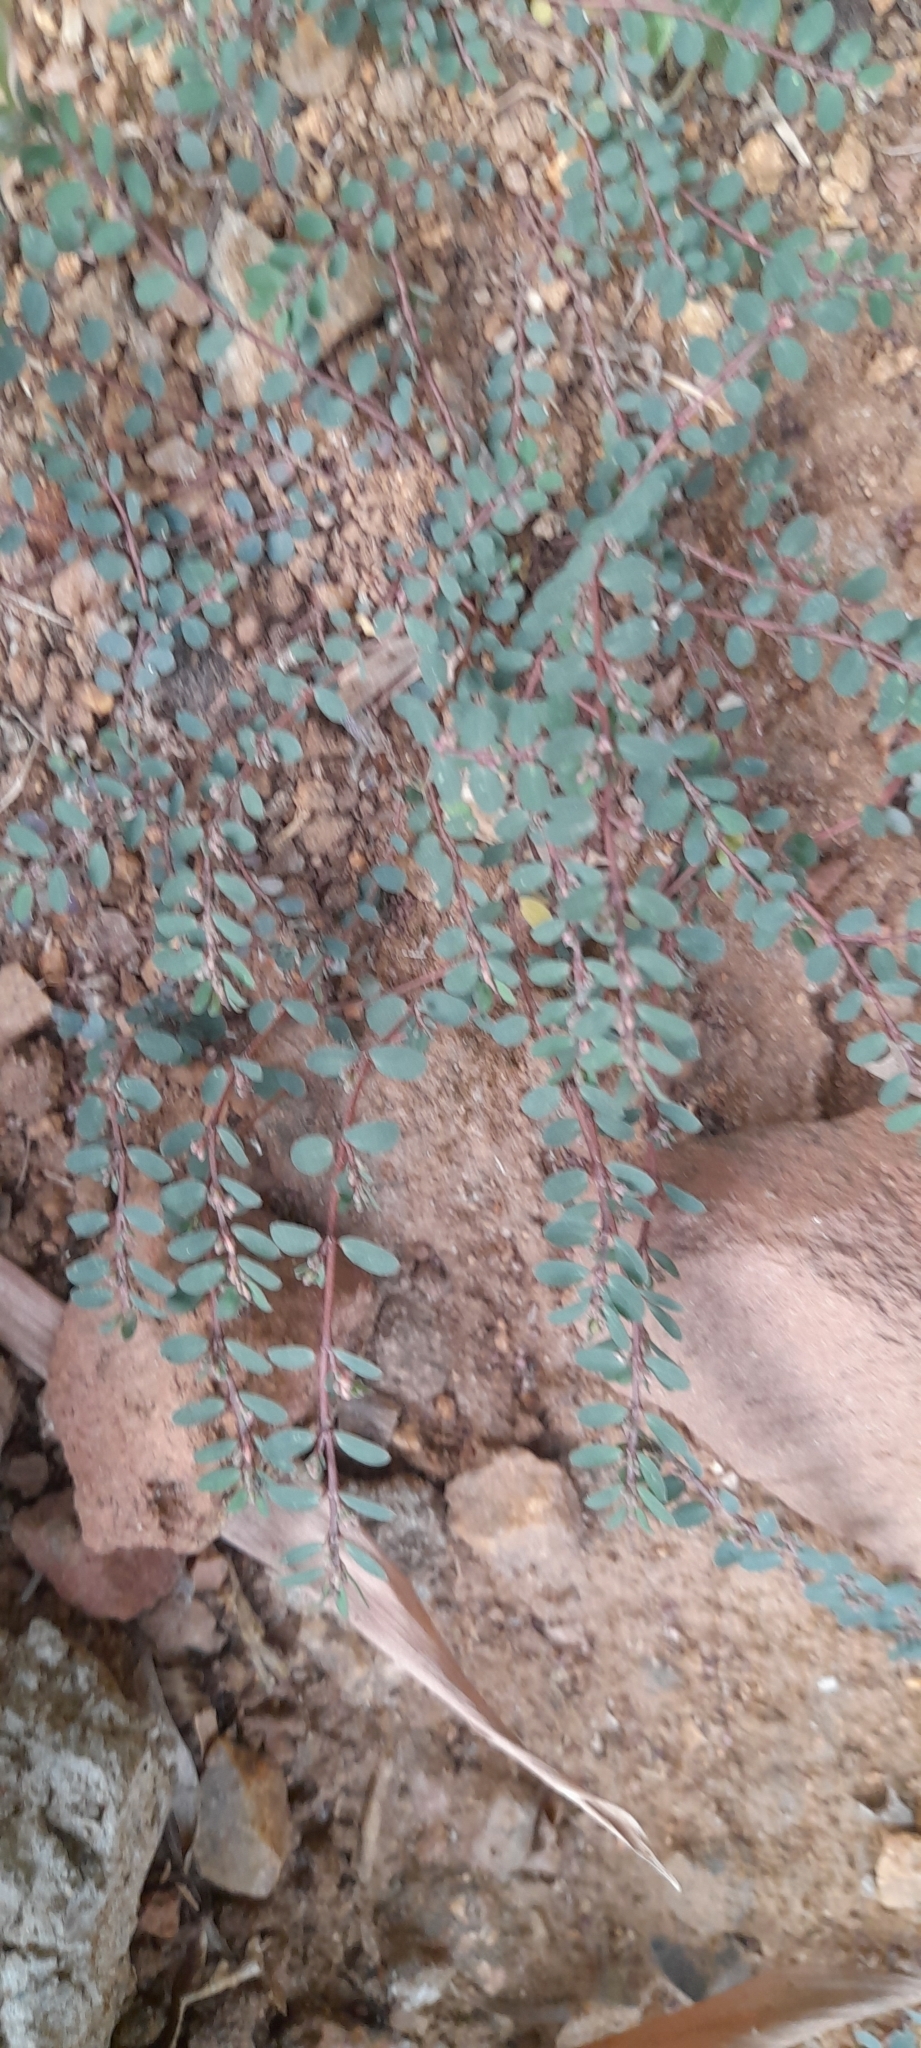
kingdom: Plantae
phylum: Tracheophyta
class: Magnoliopsida
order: Malpighiales
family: Euphorbiaceae
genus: Euphorbia
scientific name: Euphorbia thymifolia
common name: Gulf sandmat
